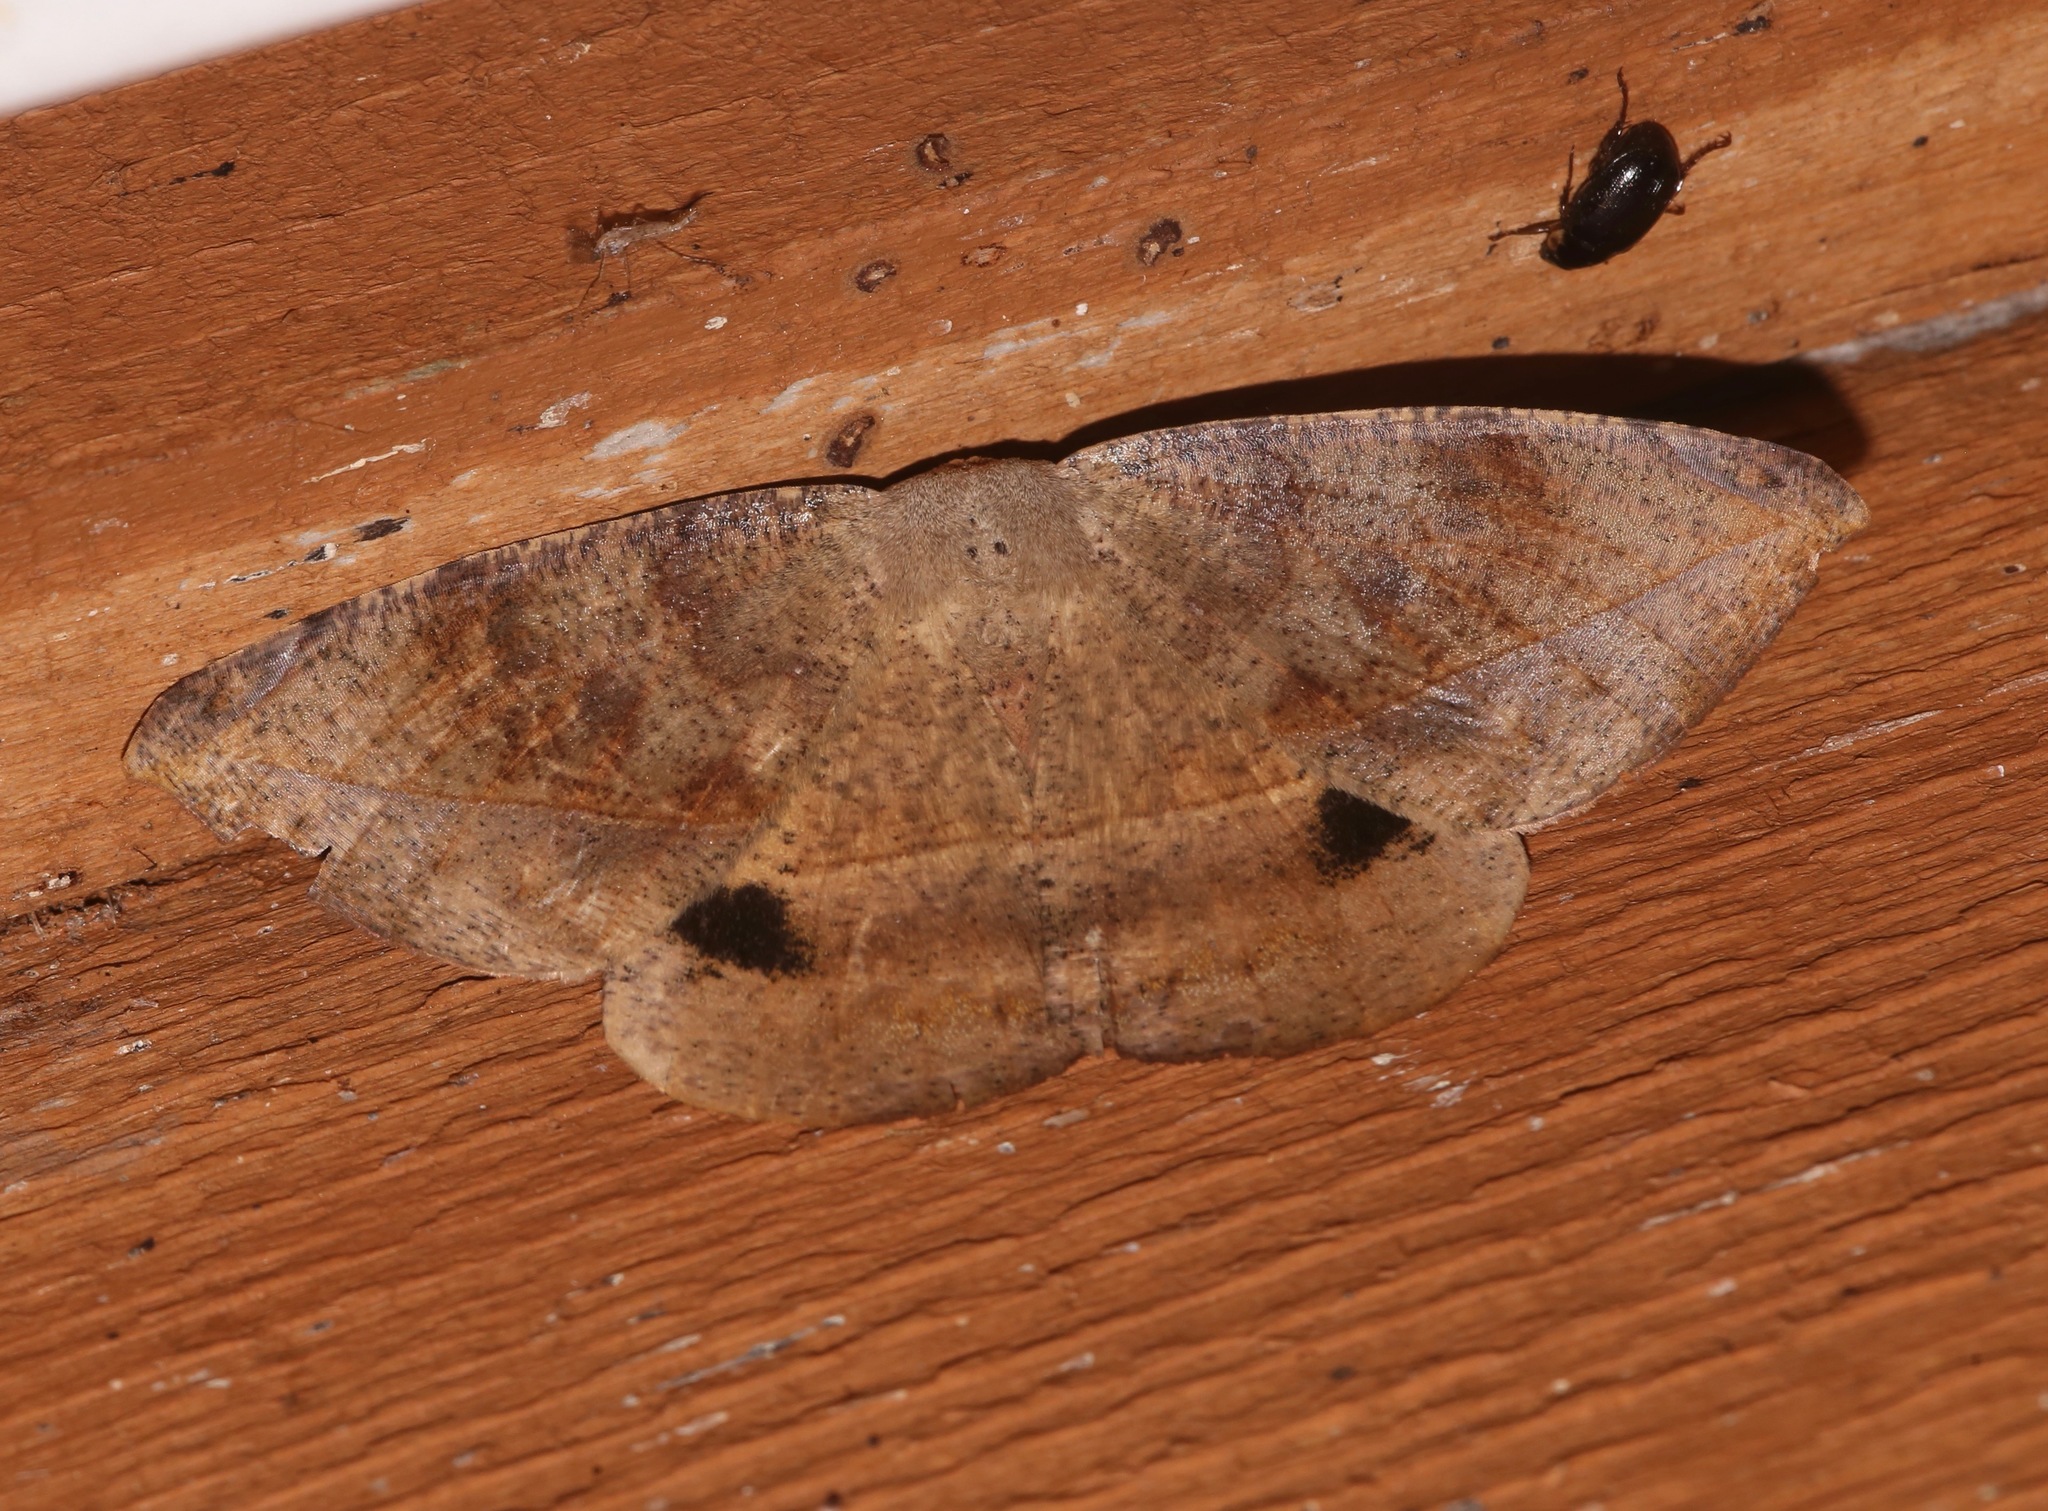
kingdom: Animalia
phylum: Arthropoda
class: Insecta
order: Lepidoptera
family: Geometridae
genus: Oxydia
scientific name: Oxydia vesulia
